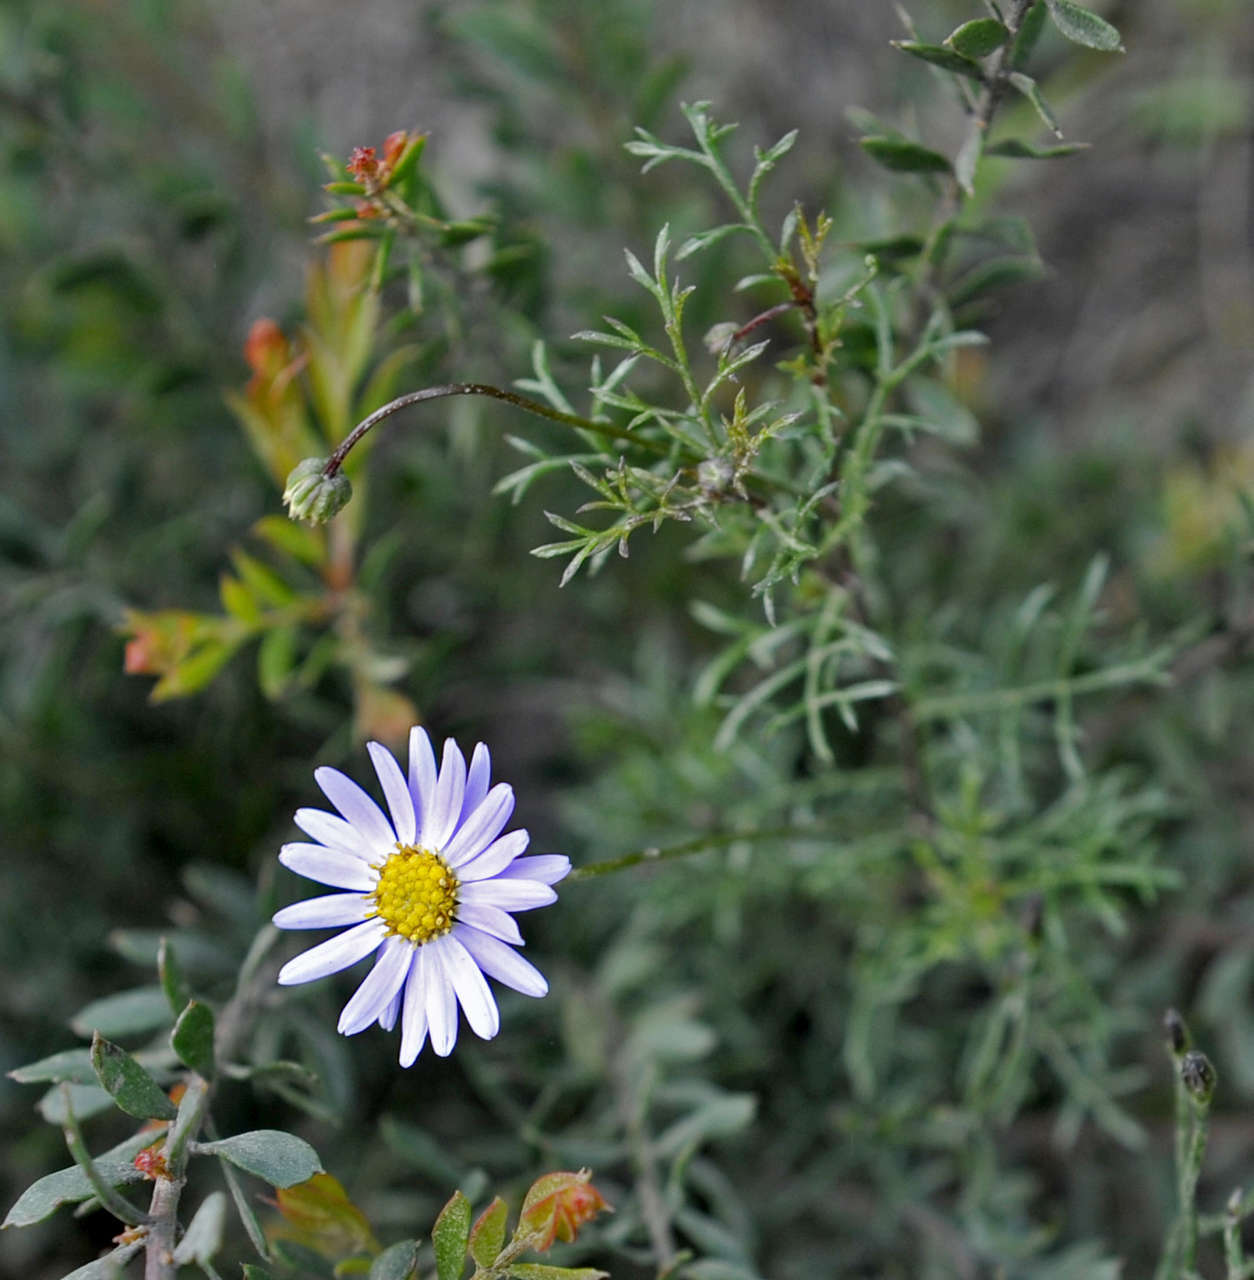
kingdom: Plantae
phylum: Tracheophyta
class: Magnoliopsida
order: Asterales
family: Asteraceae
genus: Brachyscome
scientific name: Brachyscome multifida
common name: Cut-leaf daisy
